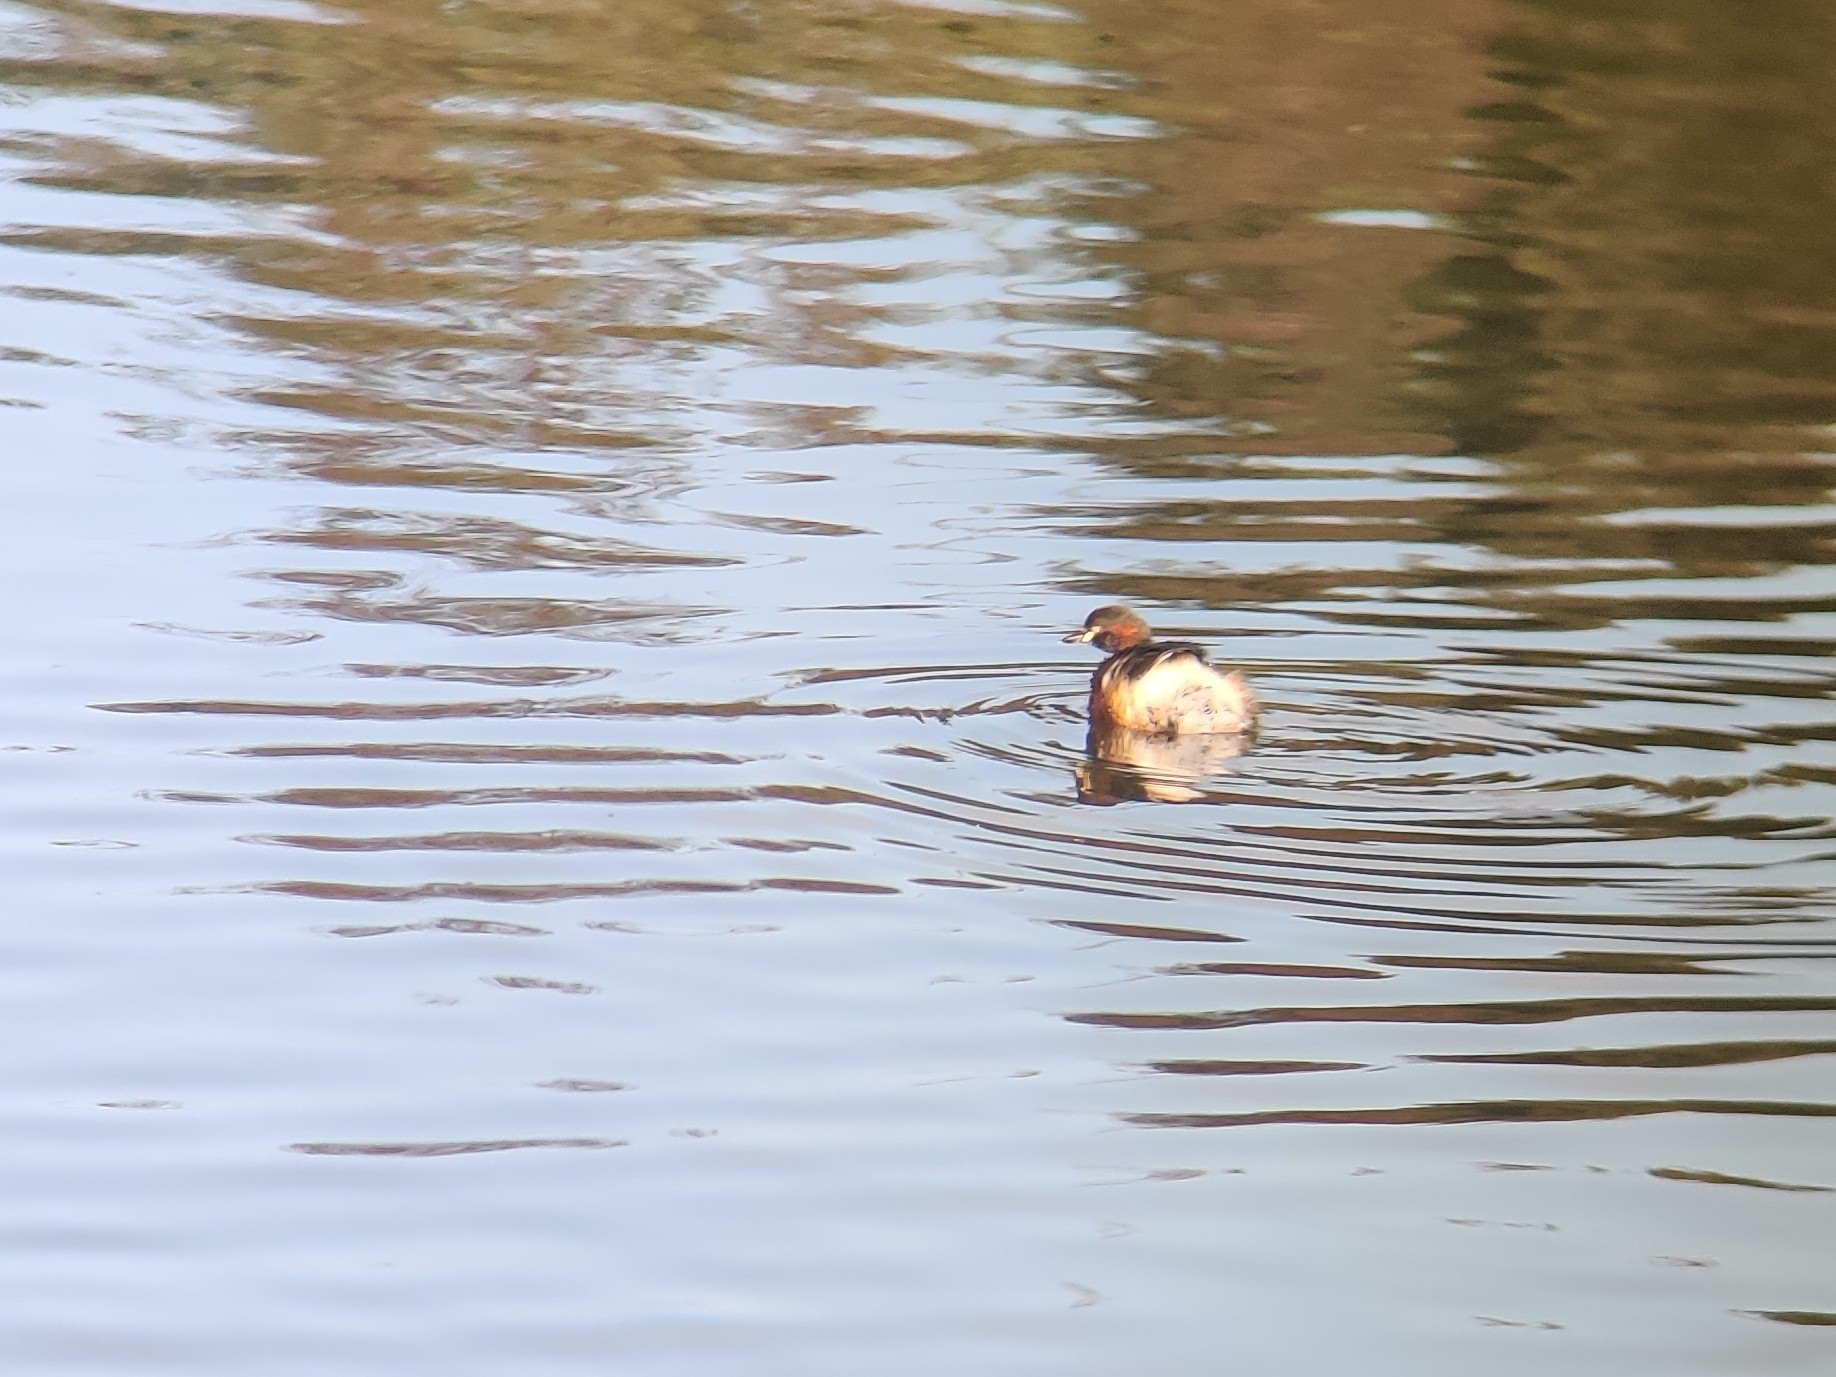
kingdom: Animalia
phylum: Chordata
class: Aves
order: Podicipediformes
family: Podicipedidae
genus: Tachybaptus
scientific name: Tachybaptus novaehollandiae
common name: Australasian grebe
